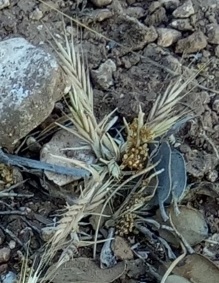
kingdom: Plantae
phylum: Tracheophyta
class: Liliopsida
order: Poales
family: Poaceae
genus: Brachypodium
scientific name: Brachypodium distachyon
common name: Stiff brome
